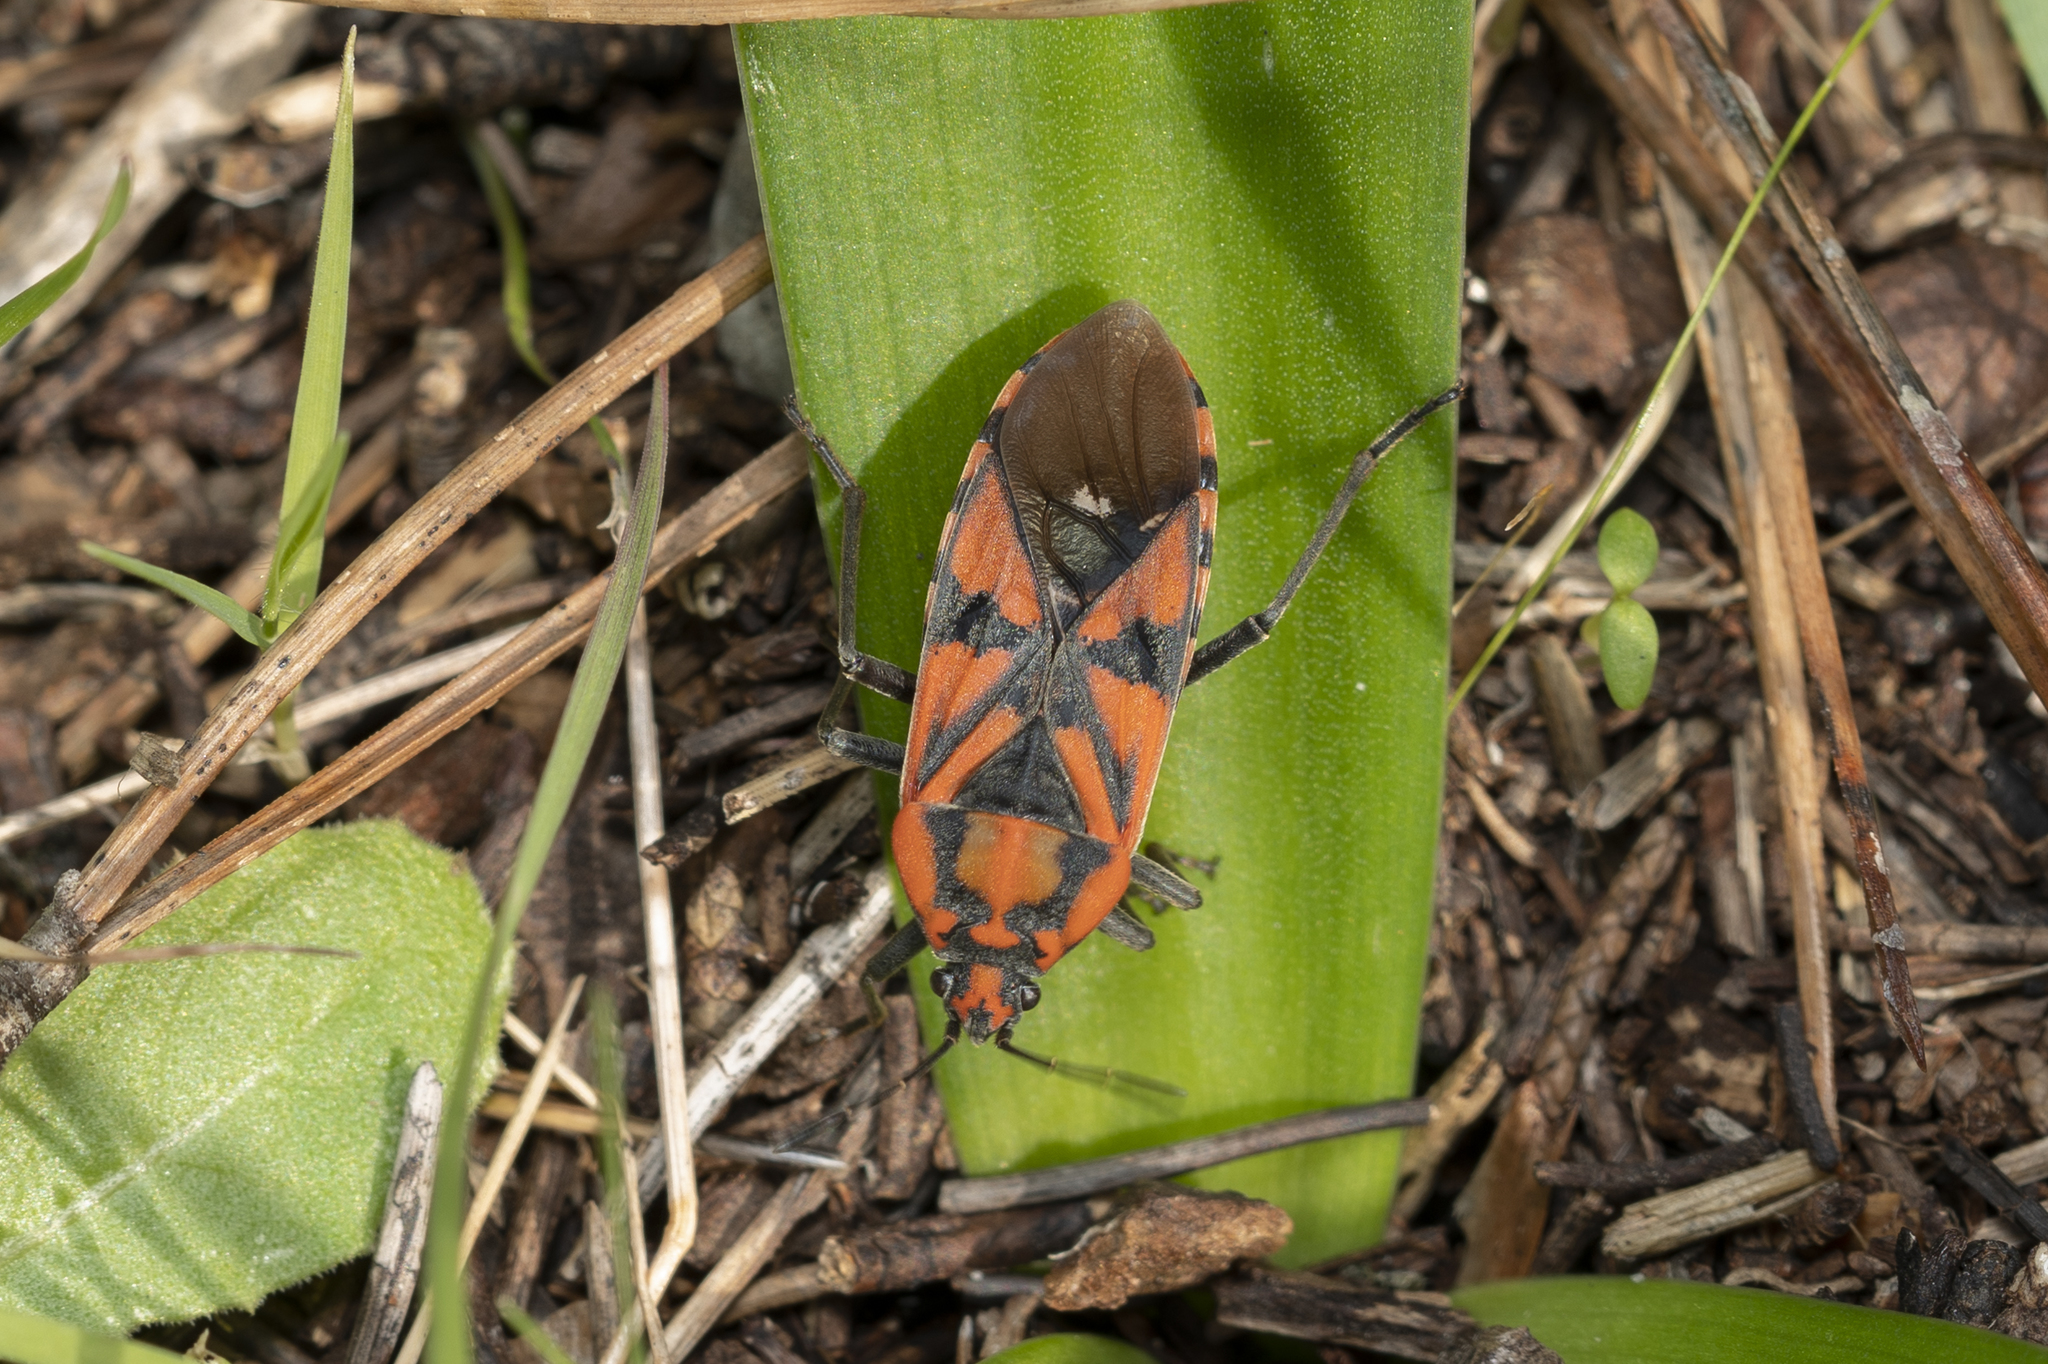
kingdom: Animalia
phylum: Arthropoda
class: Insecta
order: Hemiptera
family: Lygaeidae
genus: Spilostethus
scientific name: Spilostethus pandurus
